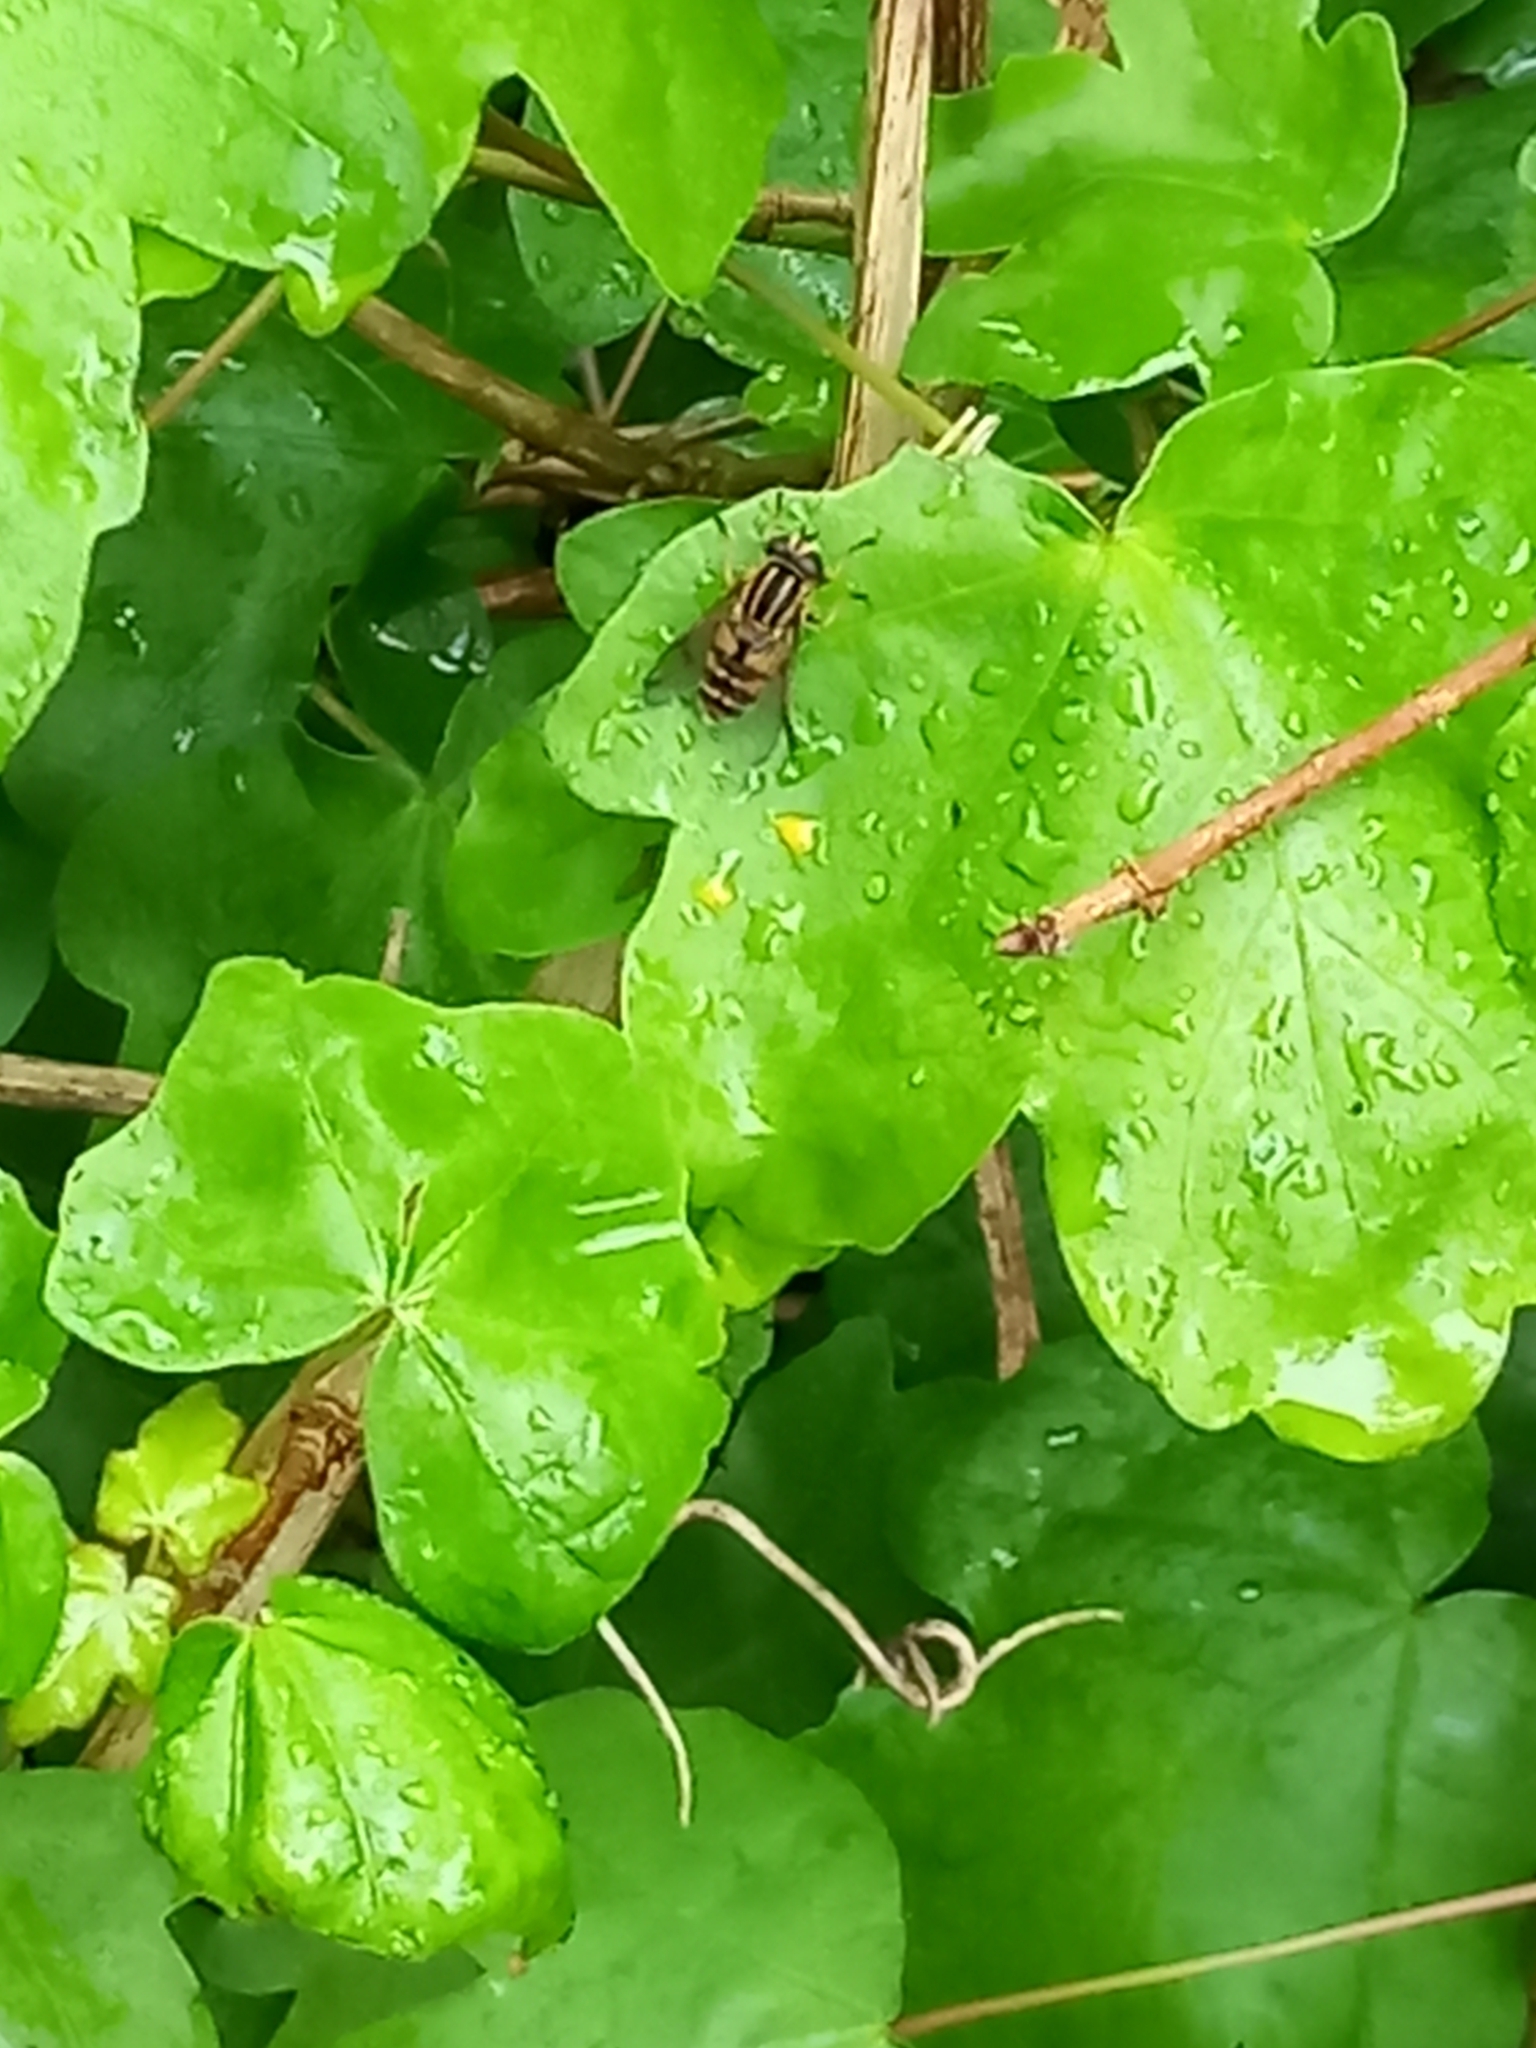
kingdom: Animalia
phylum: Arthropoda
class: Insecta
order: Diptera
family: Syrphidae
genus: Helophilus
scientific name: Helophilus pendulus
